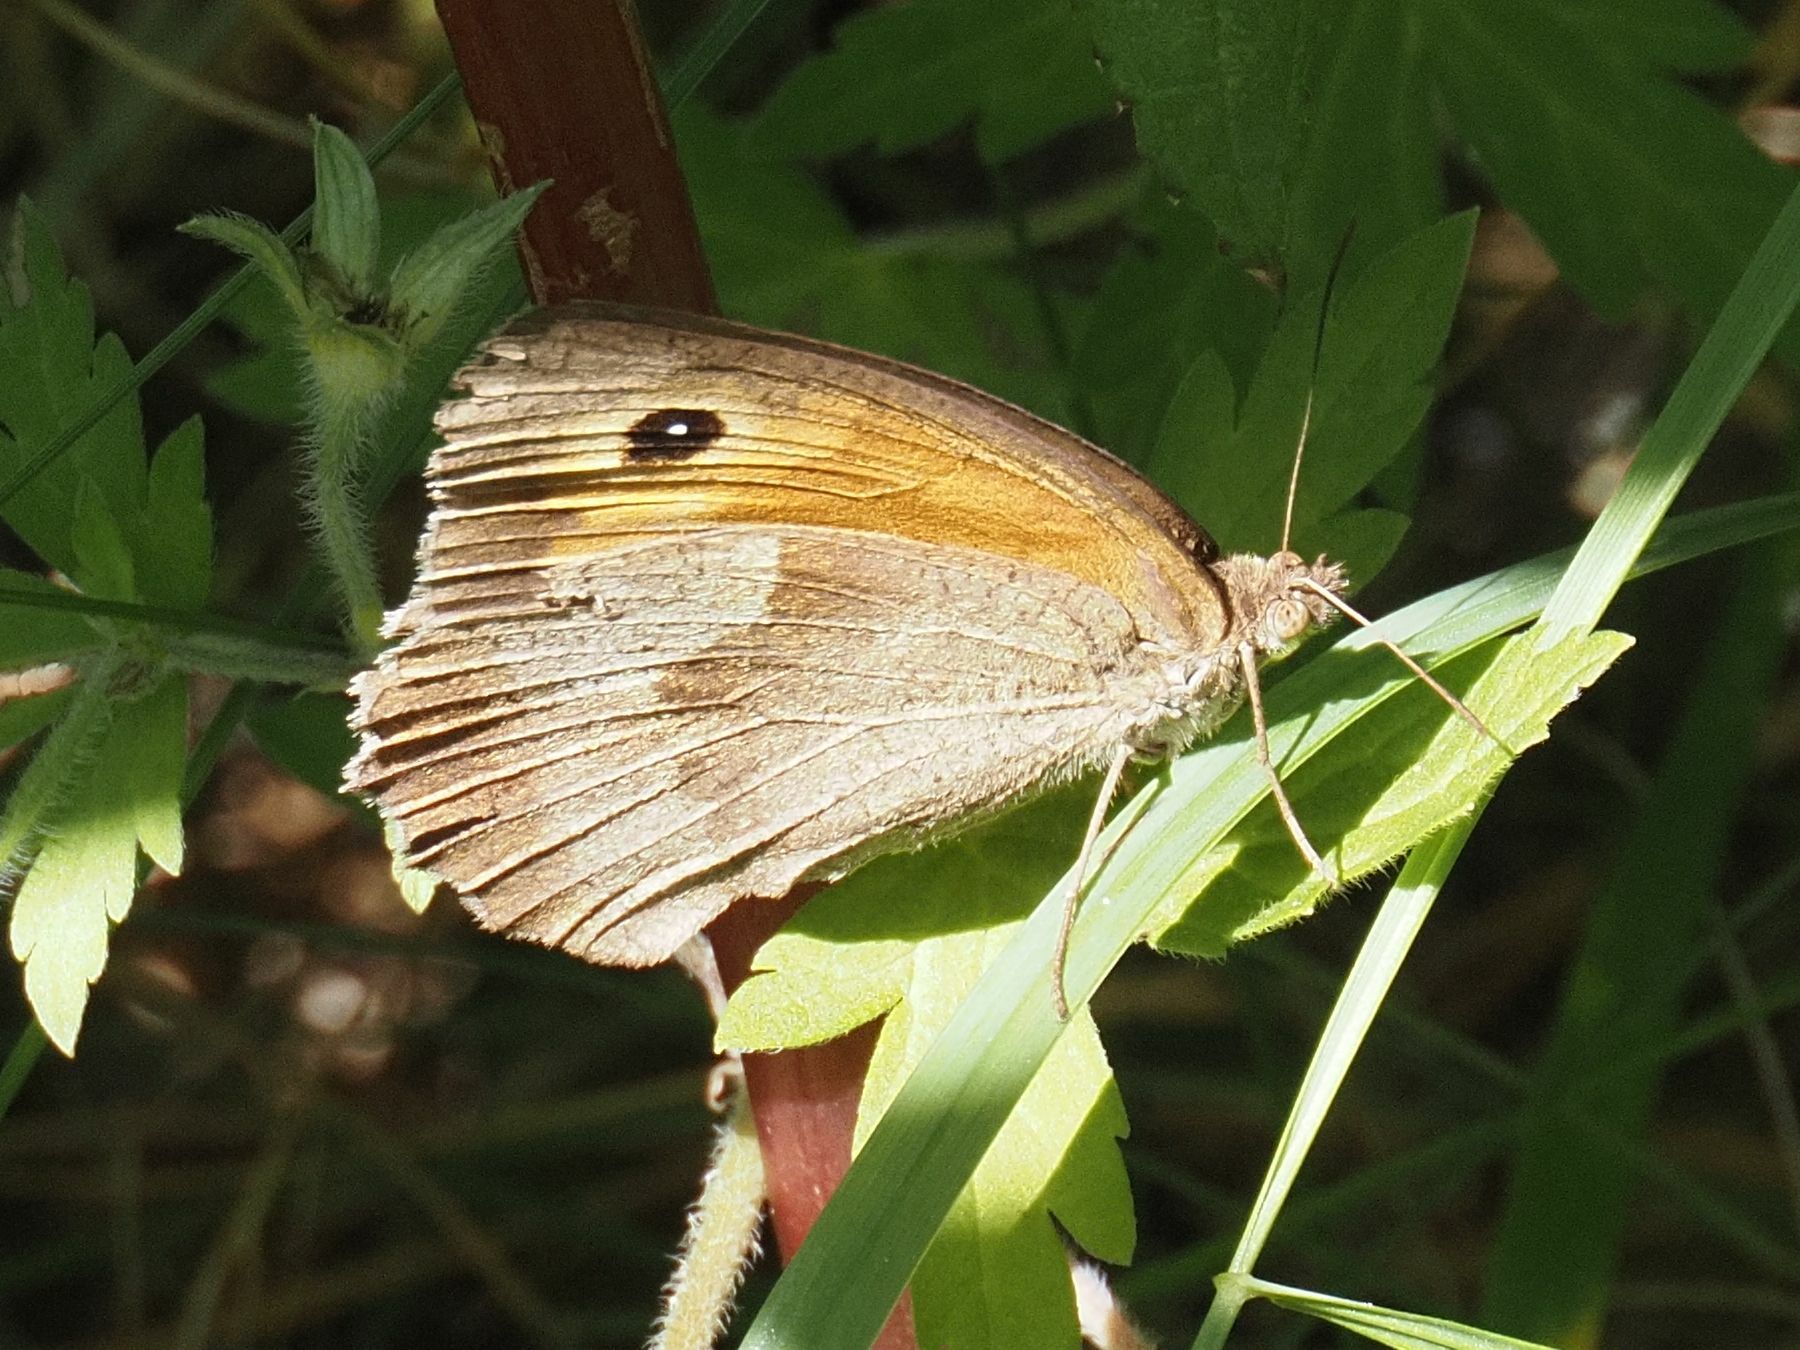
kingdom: Animalia
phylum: Arthropoda
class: Insecta
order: Lepidoptera
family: Nymphalidae
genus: Maniola
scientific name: Maniola jurtina
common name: Meadow brown
